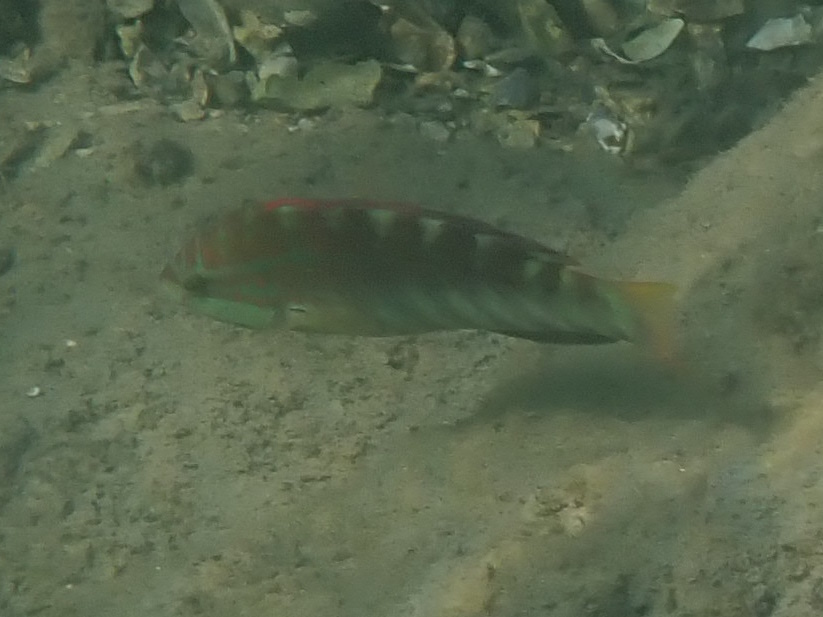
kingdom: Animalia
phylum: Chordata
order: Perciformes
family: Labridae
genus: Pseudolabrus
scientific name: Pseudolabrus guentheri
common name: Günther's wrasse
